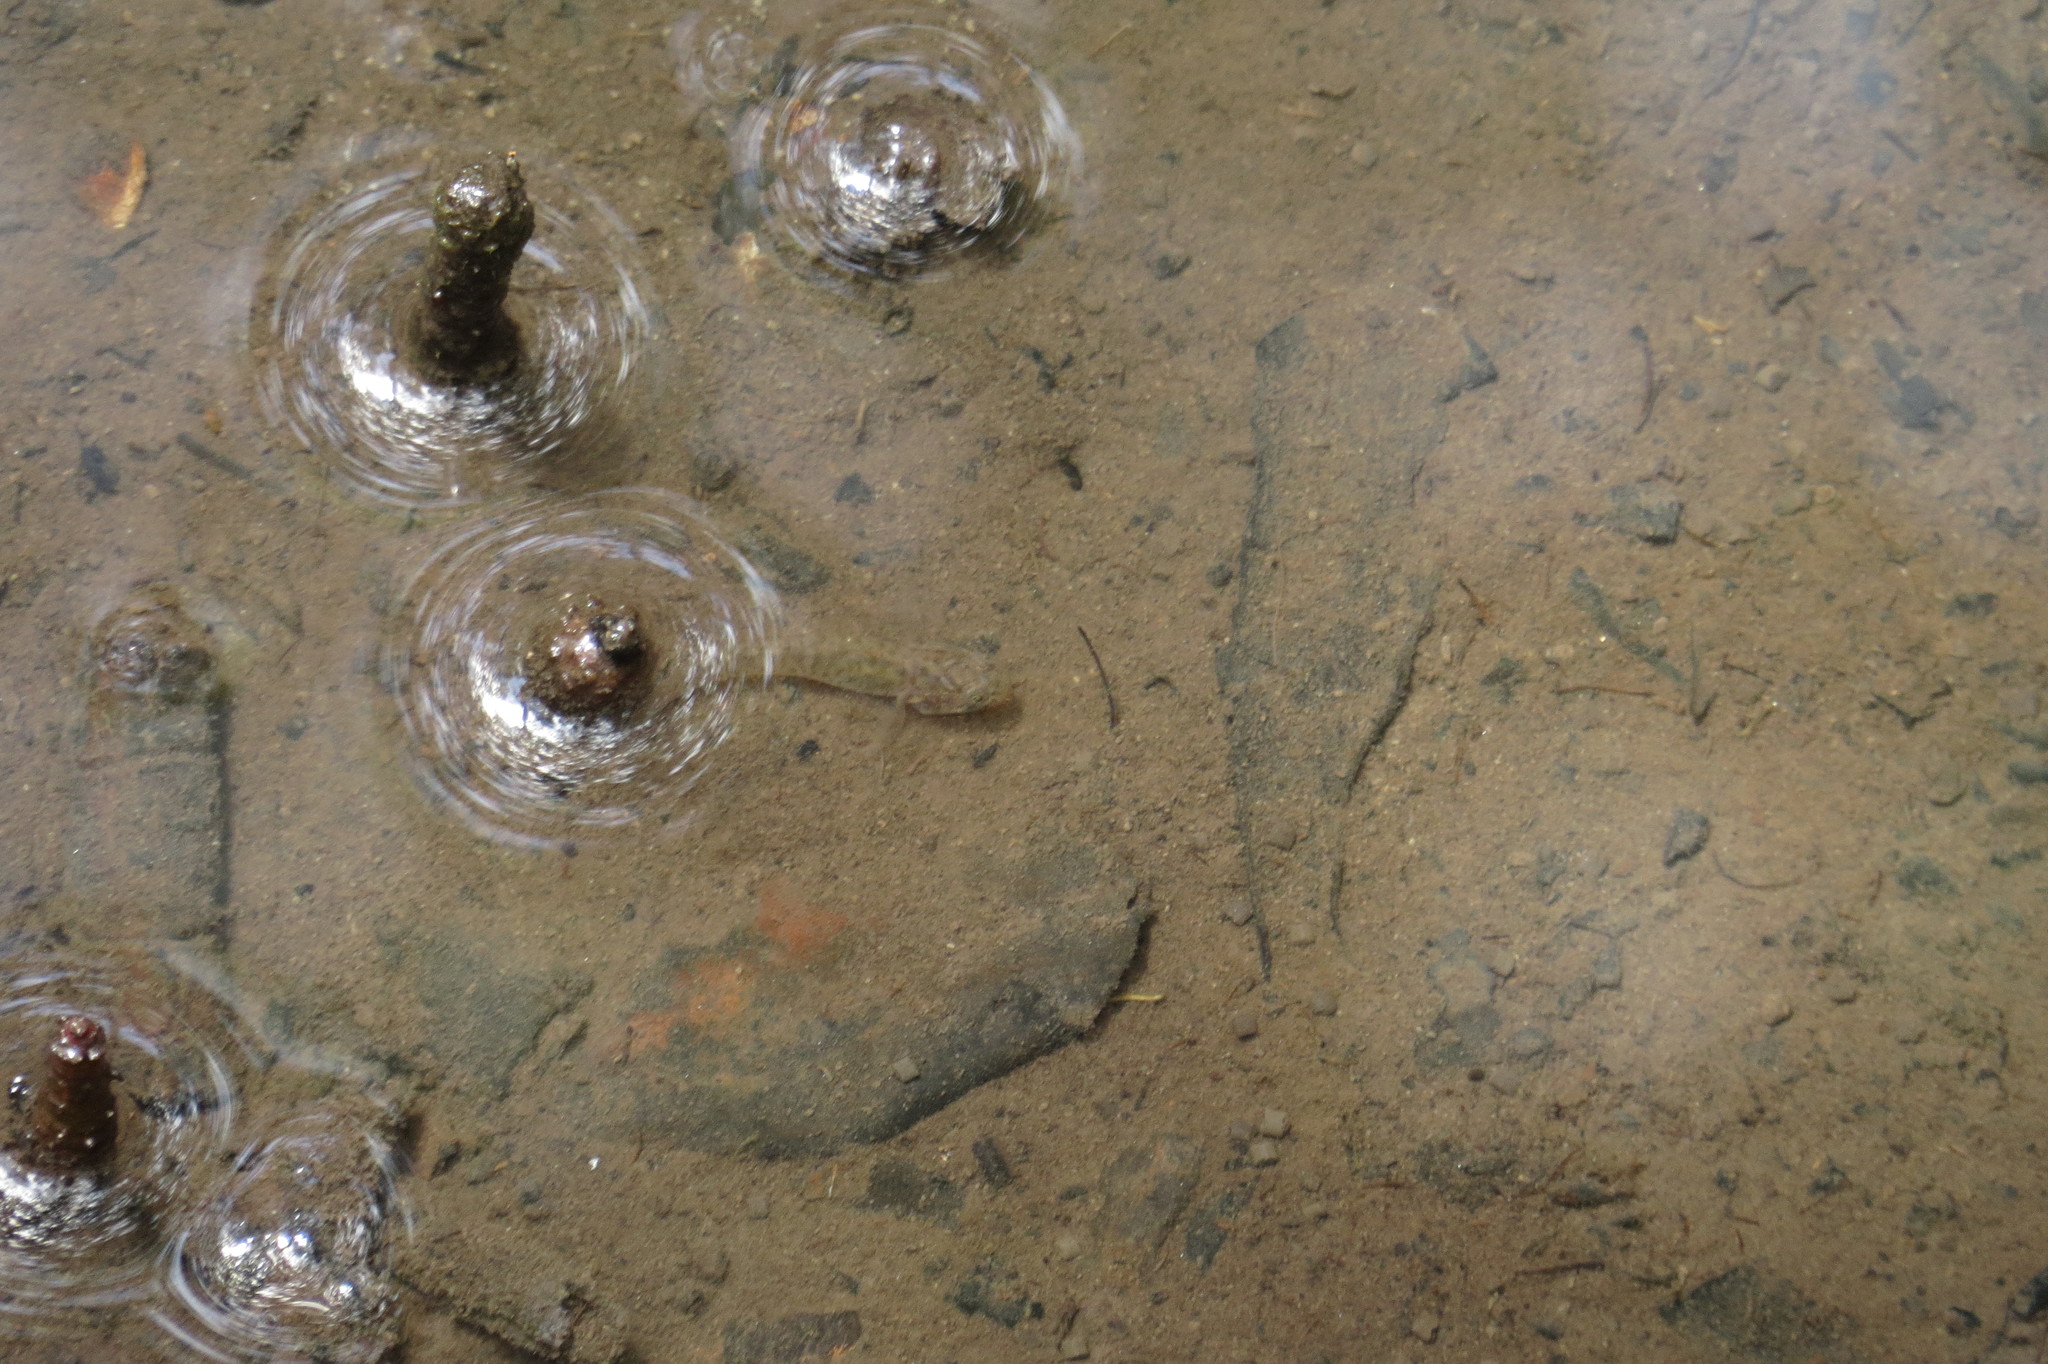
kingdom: Animalia
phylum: Chordata
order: Perciformes
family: Gobiidae
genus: Wuhanlinigobius
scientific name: Wuhanlinigobius polylepis
